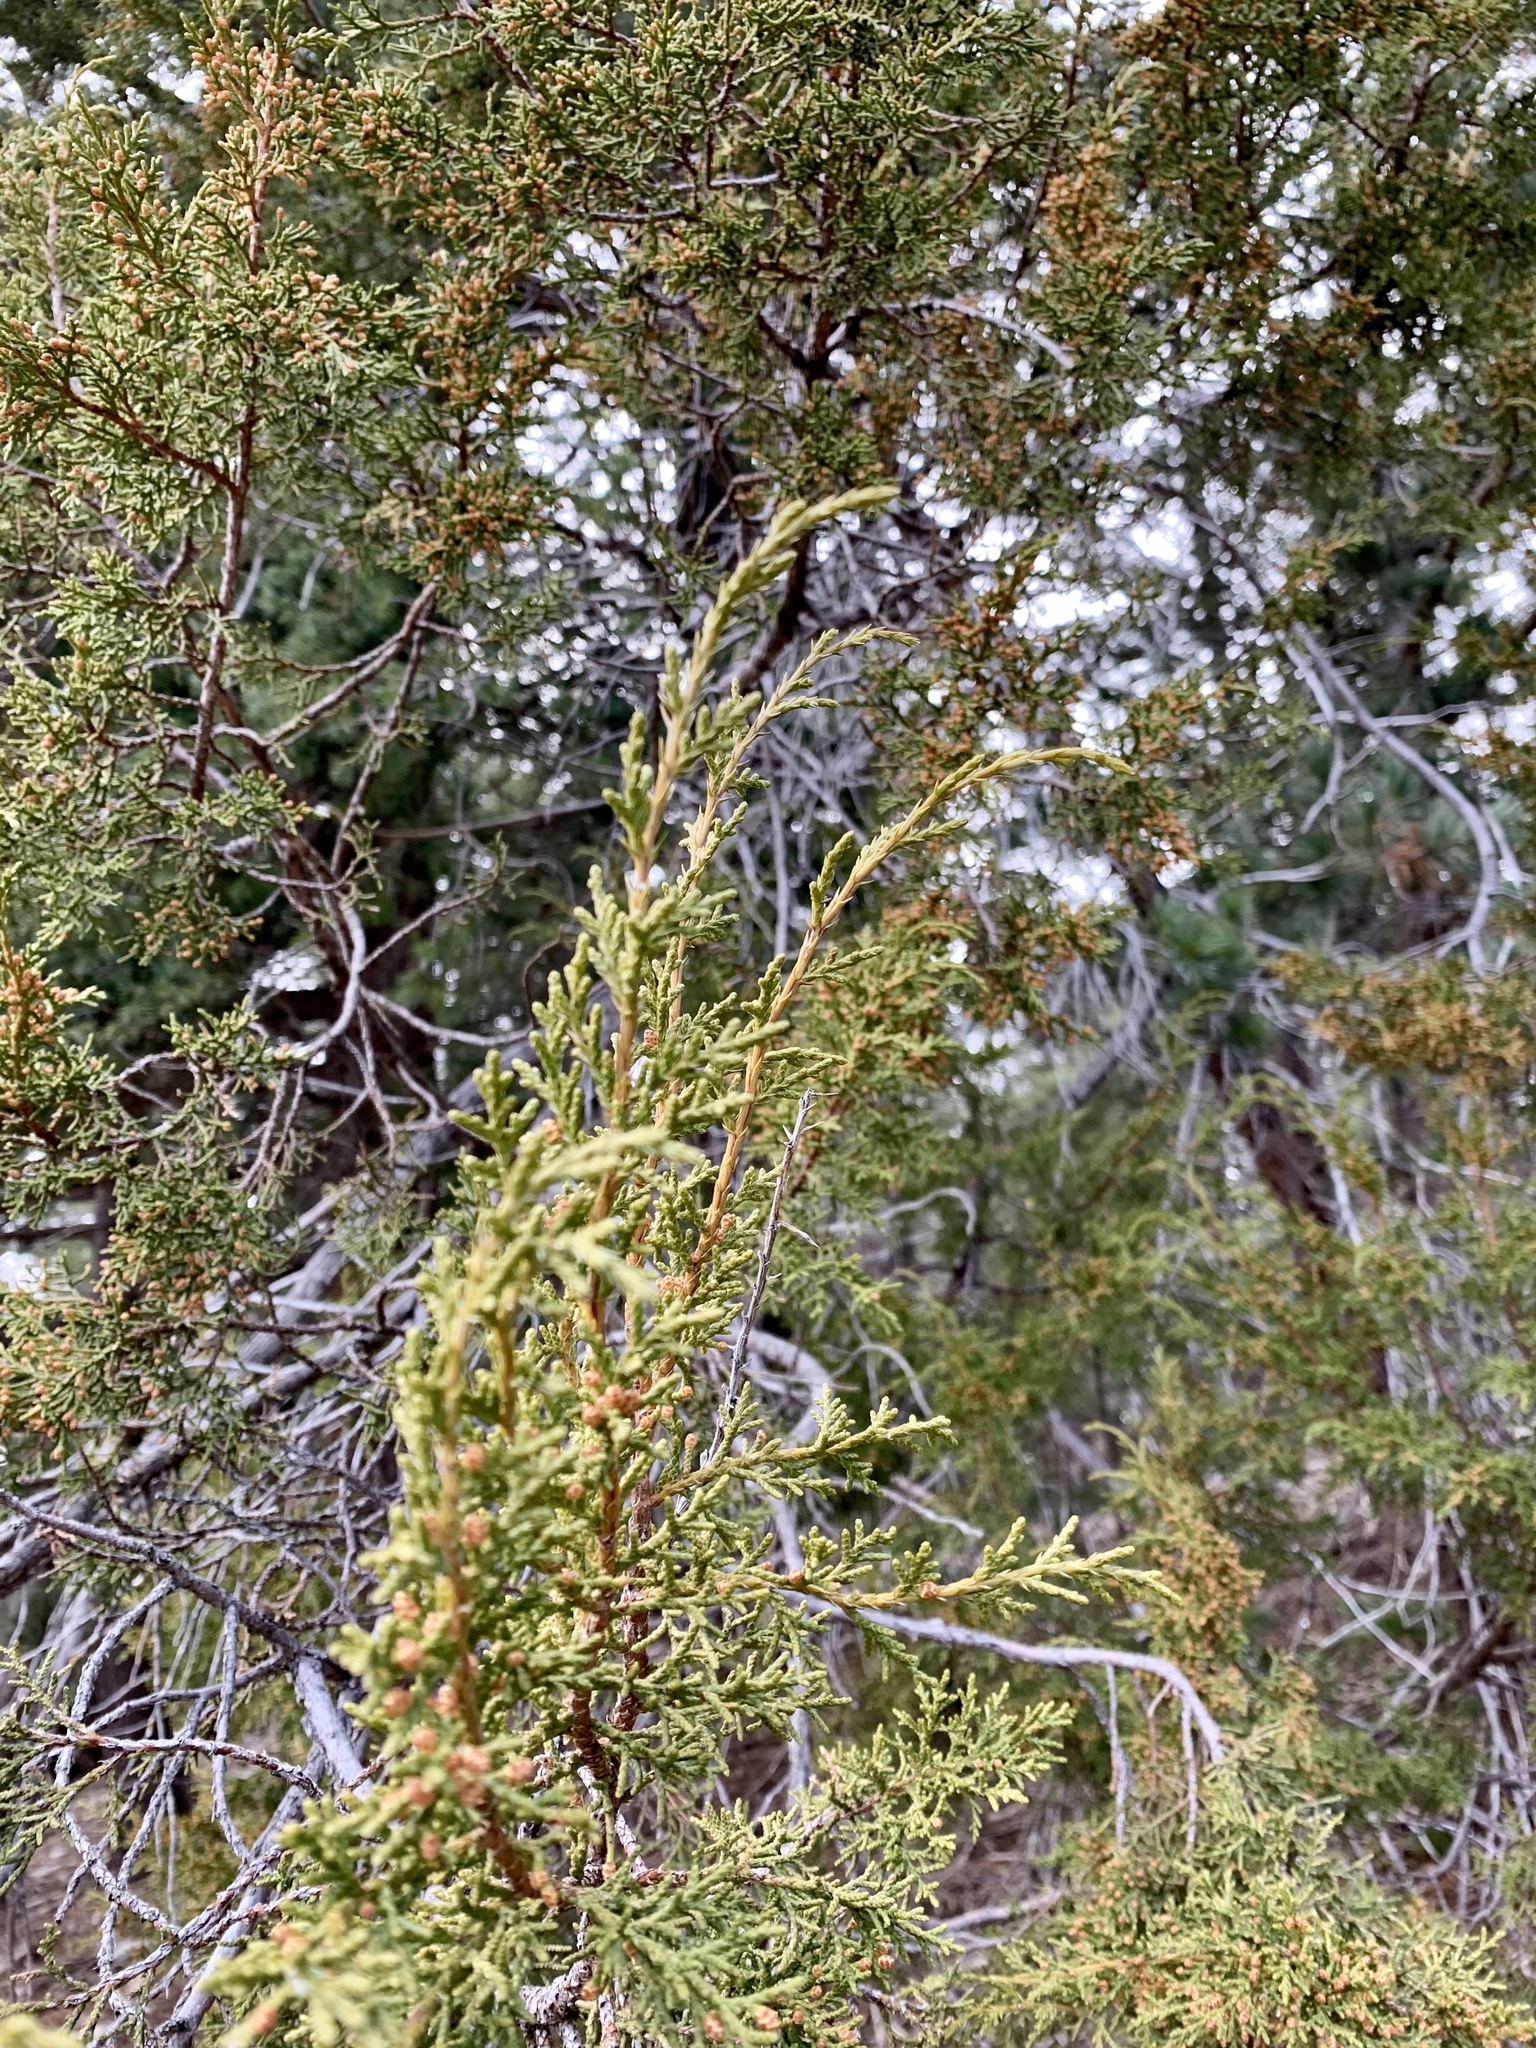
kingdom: Plantae
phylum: Tracheophyta
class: Pinopsida
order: Pinales
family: Cupressaceae
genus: Juniperus
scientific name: Juniperus monosperma
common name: One-seed juniper
